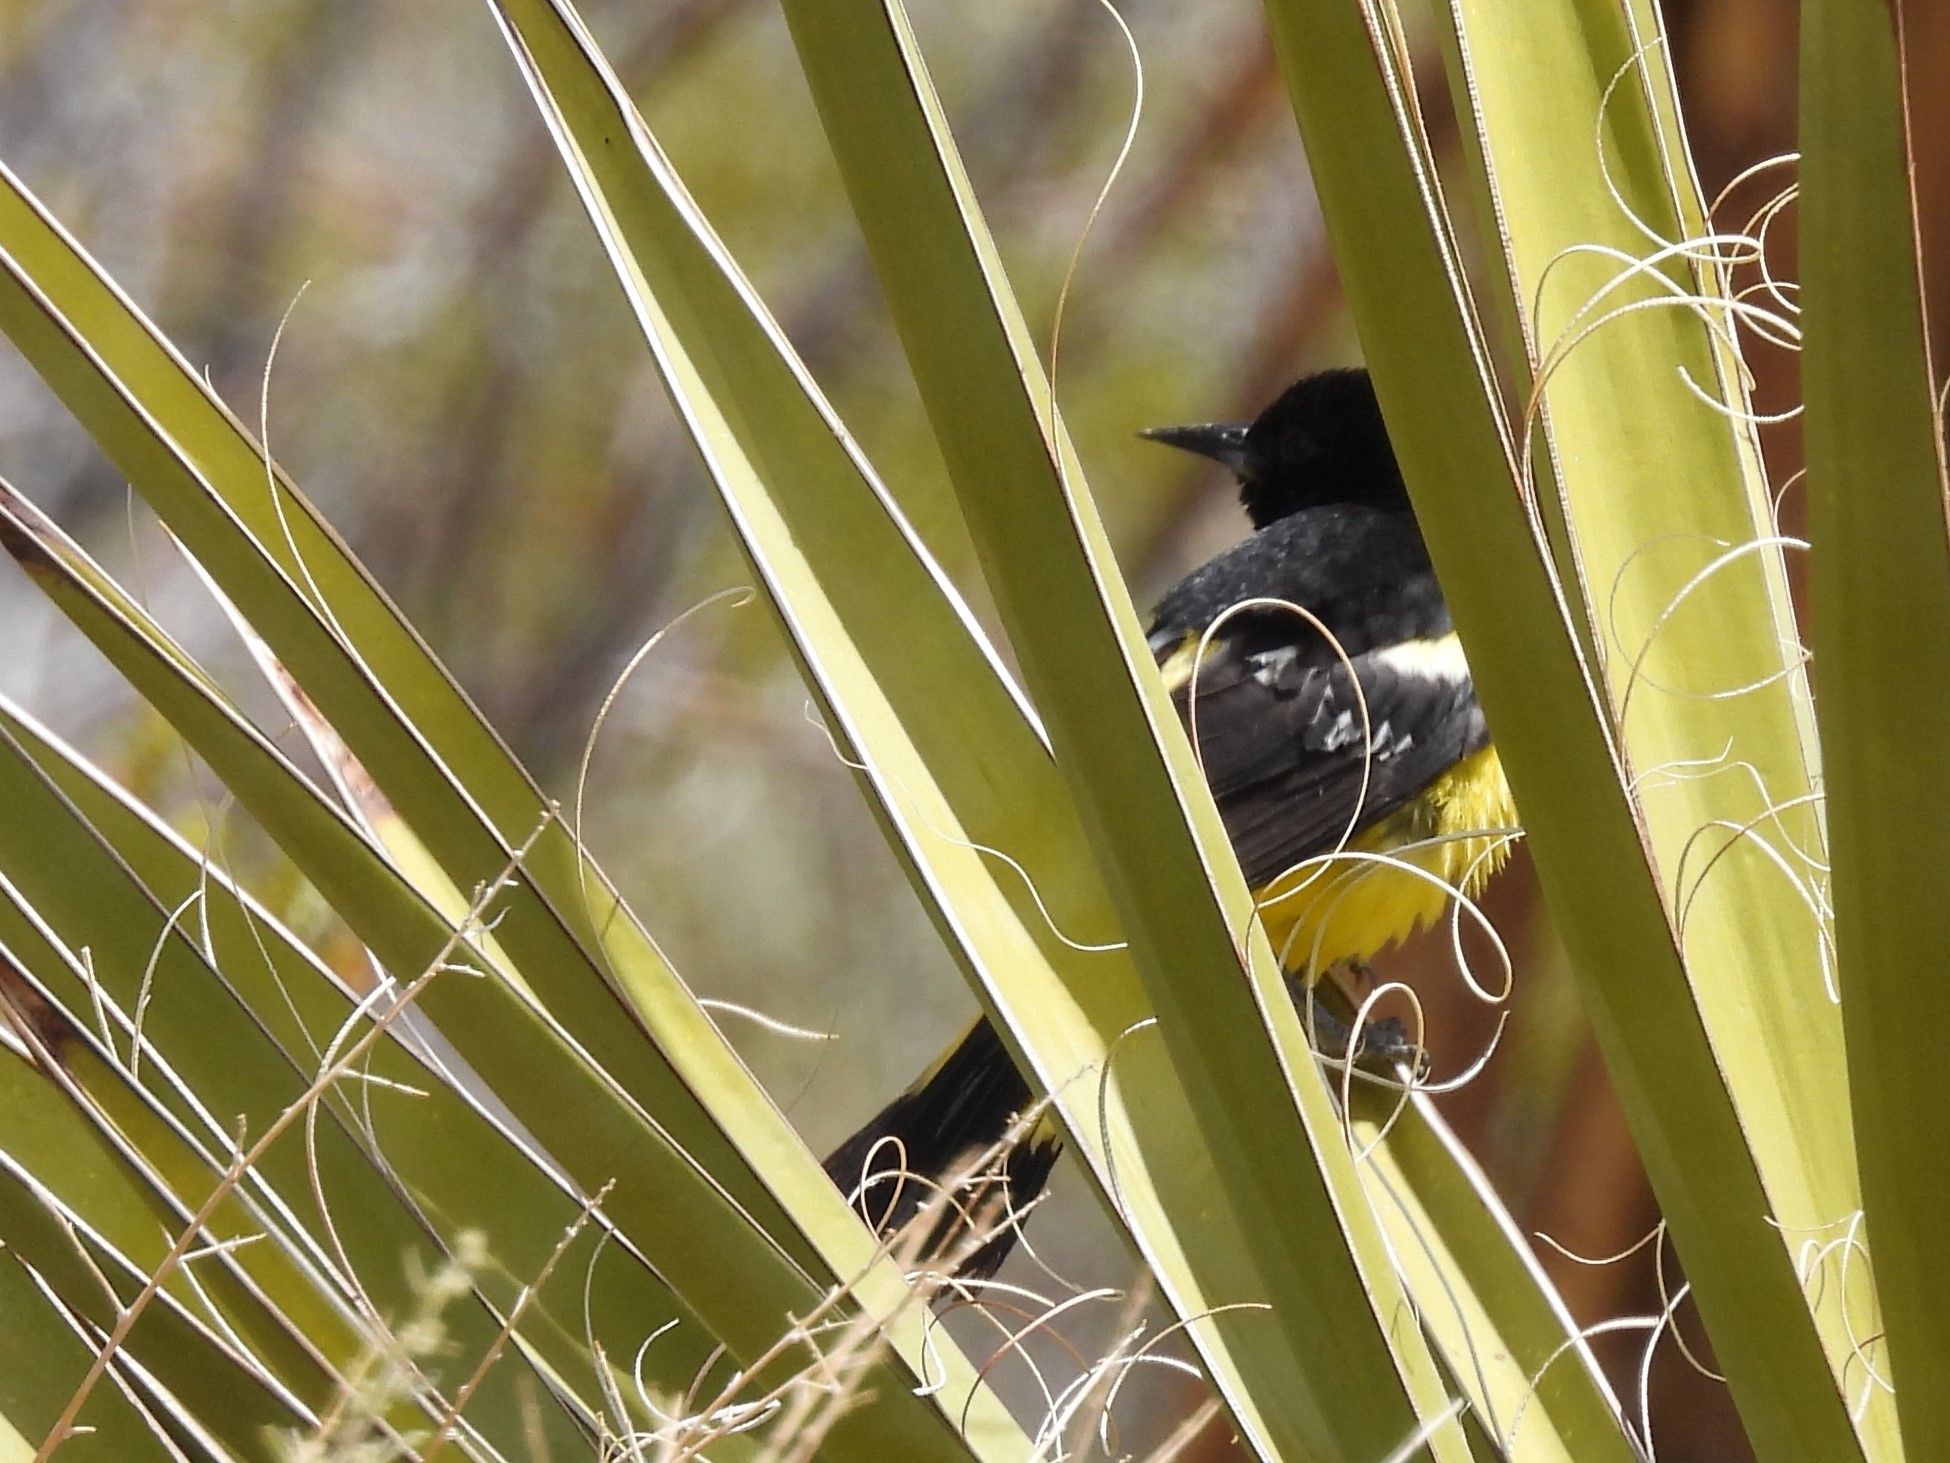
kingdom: Animalia
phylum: Chordata
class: Aves
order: Passeriformes
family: Icteridae
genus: Icterus
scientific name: Icterus parisorum
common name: Scott's oriole
